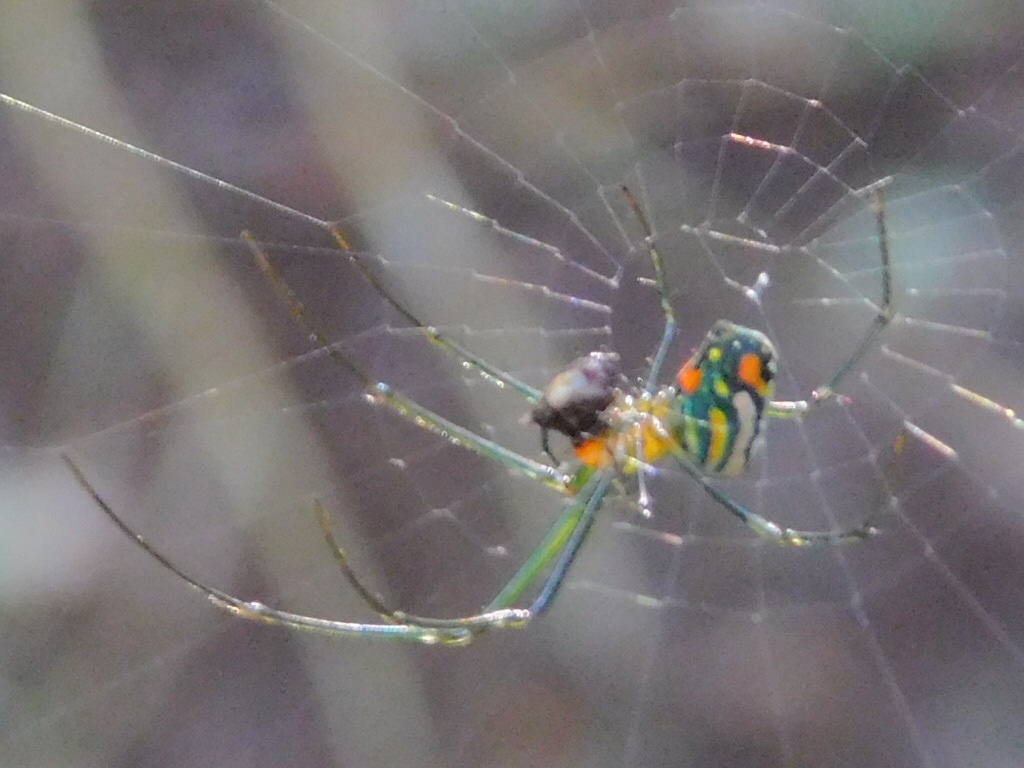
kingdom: Animalia
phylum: Arthropoda
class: Arachnida
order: Araneae
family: Tetragnathidae
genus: Leucauge
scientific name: Leucauge argyrobapta
